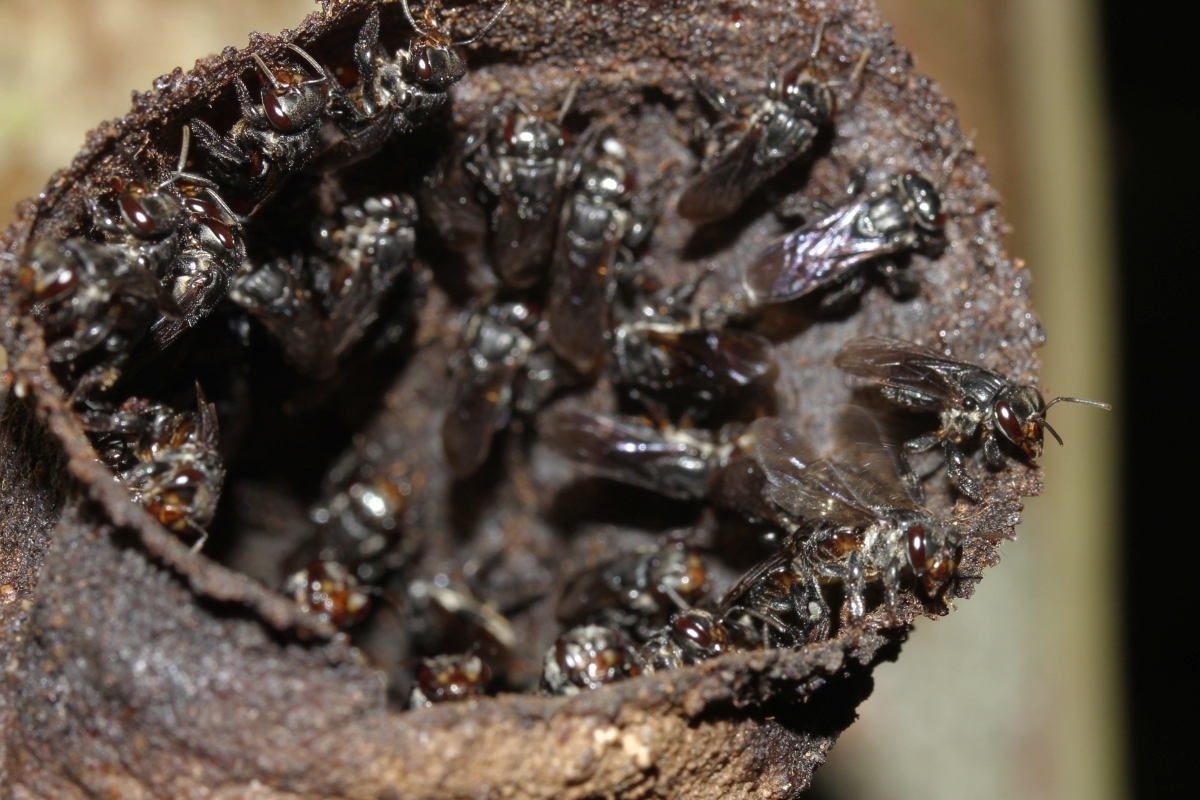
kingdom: Animalia
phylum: Arthropoda
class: Insecta
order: Hymenoptera
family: Apidae
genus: Scaptotrigona
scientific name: Scaptotrigona
